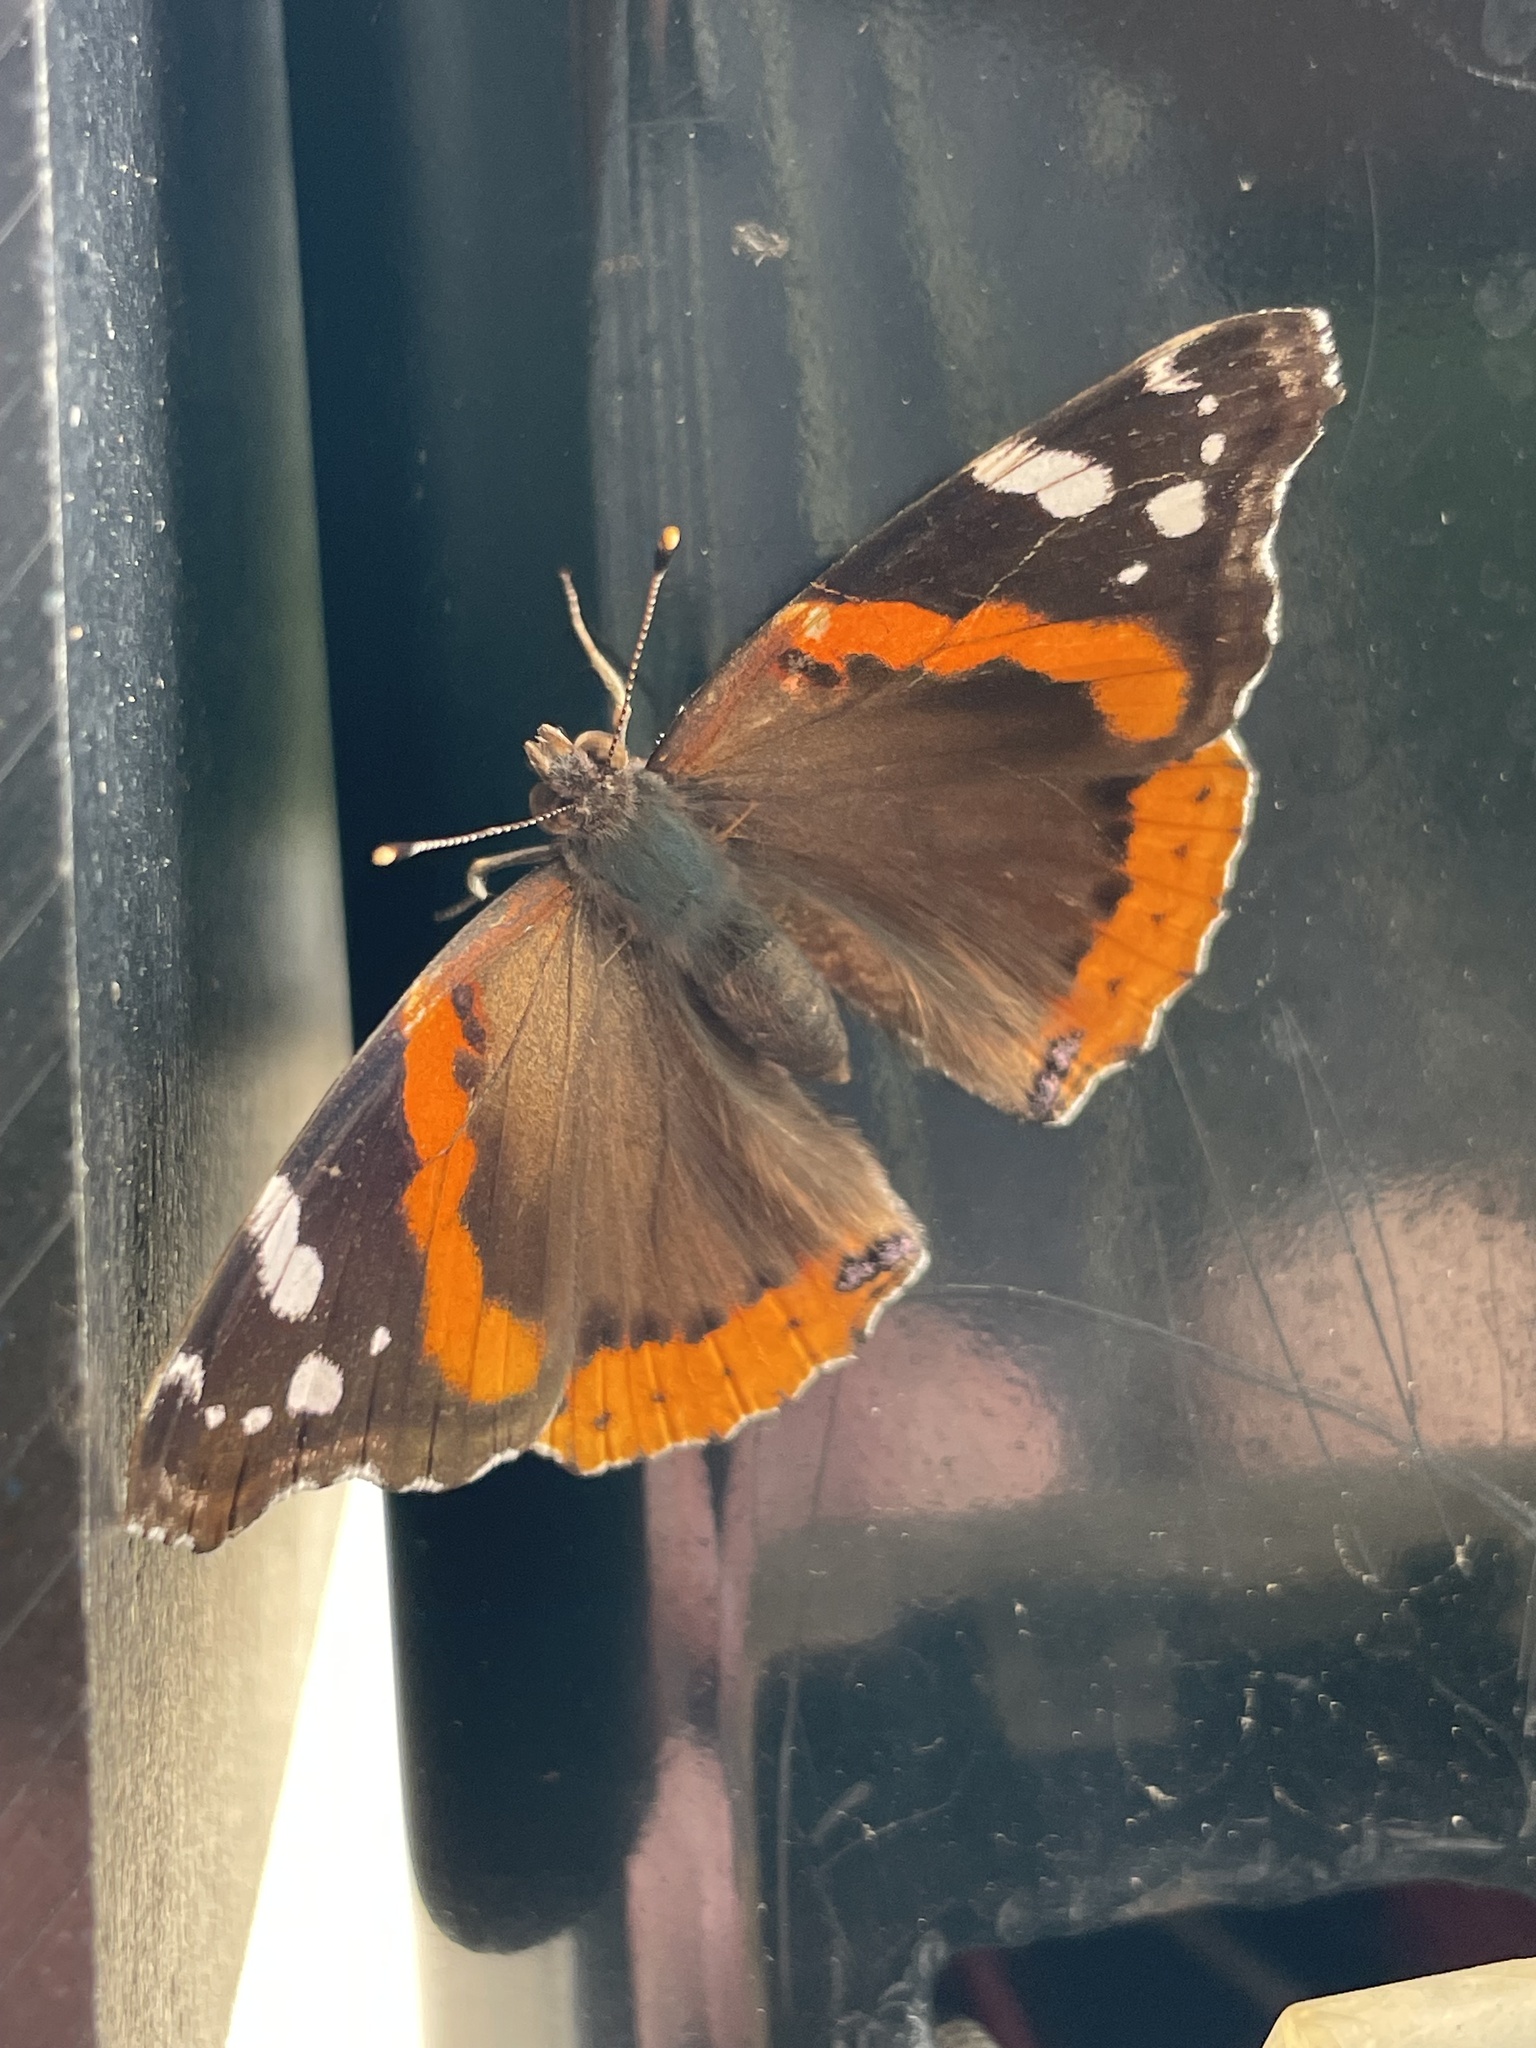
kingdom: Animalia
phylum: Arthropoda
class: Insecta
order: Lepidoptera
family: Nymphalidae
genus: Vanessa
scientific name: Vanessa atalanta
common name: Red admiral
